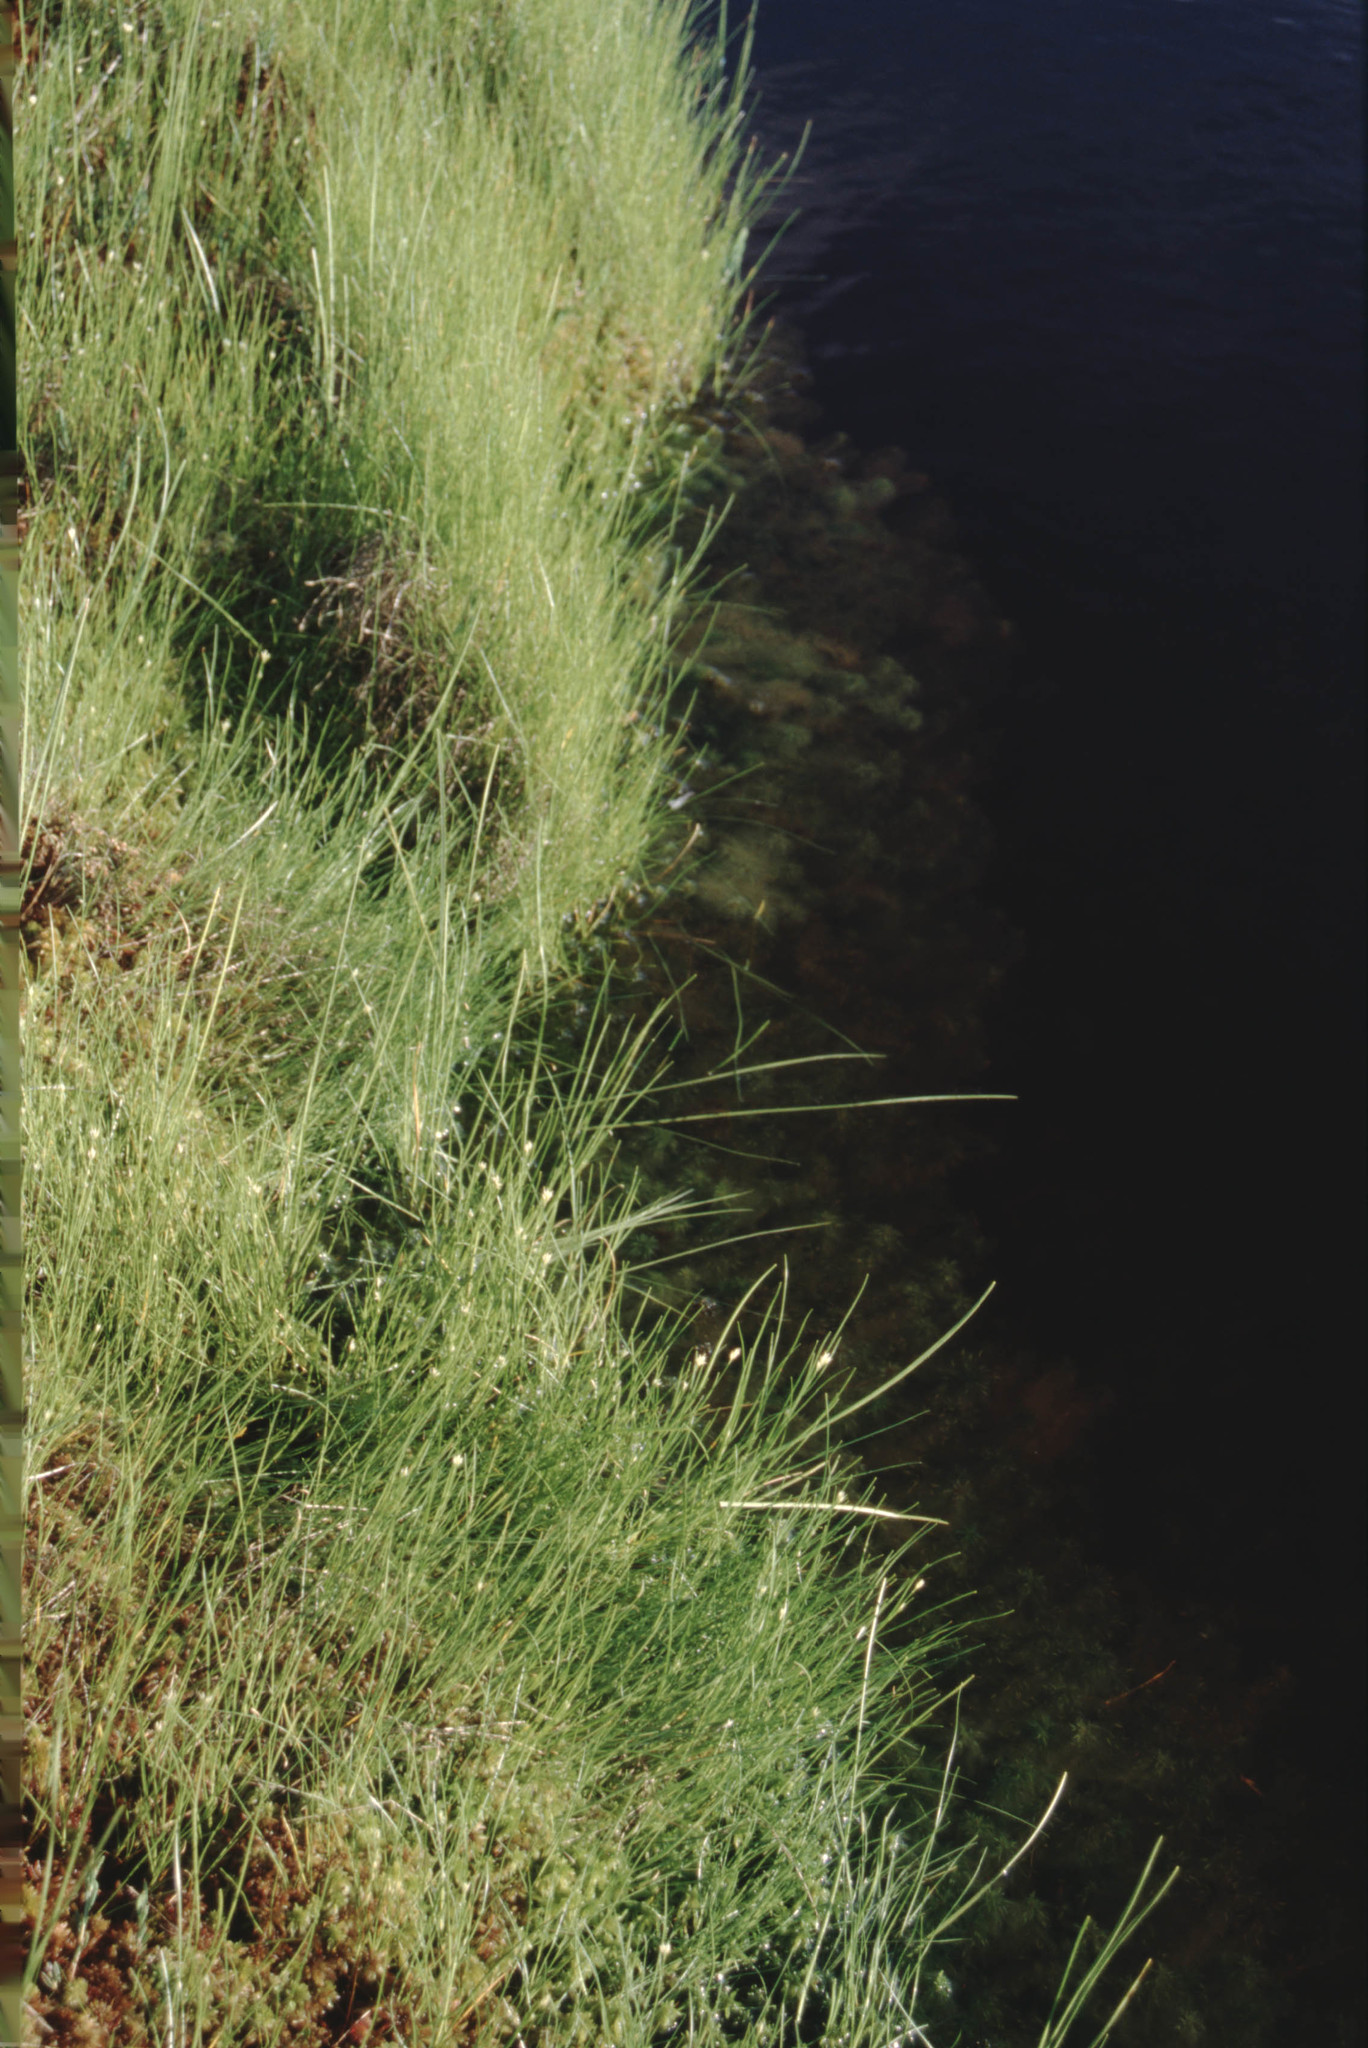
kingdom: Plantae
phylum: Tracheophyta
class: Liliopsida
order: Poales
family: Cyperaceae
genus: Rhynchospora
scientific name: Rhynchospora alba
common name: White beak-sedge
